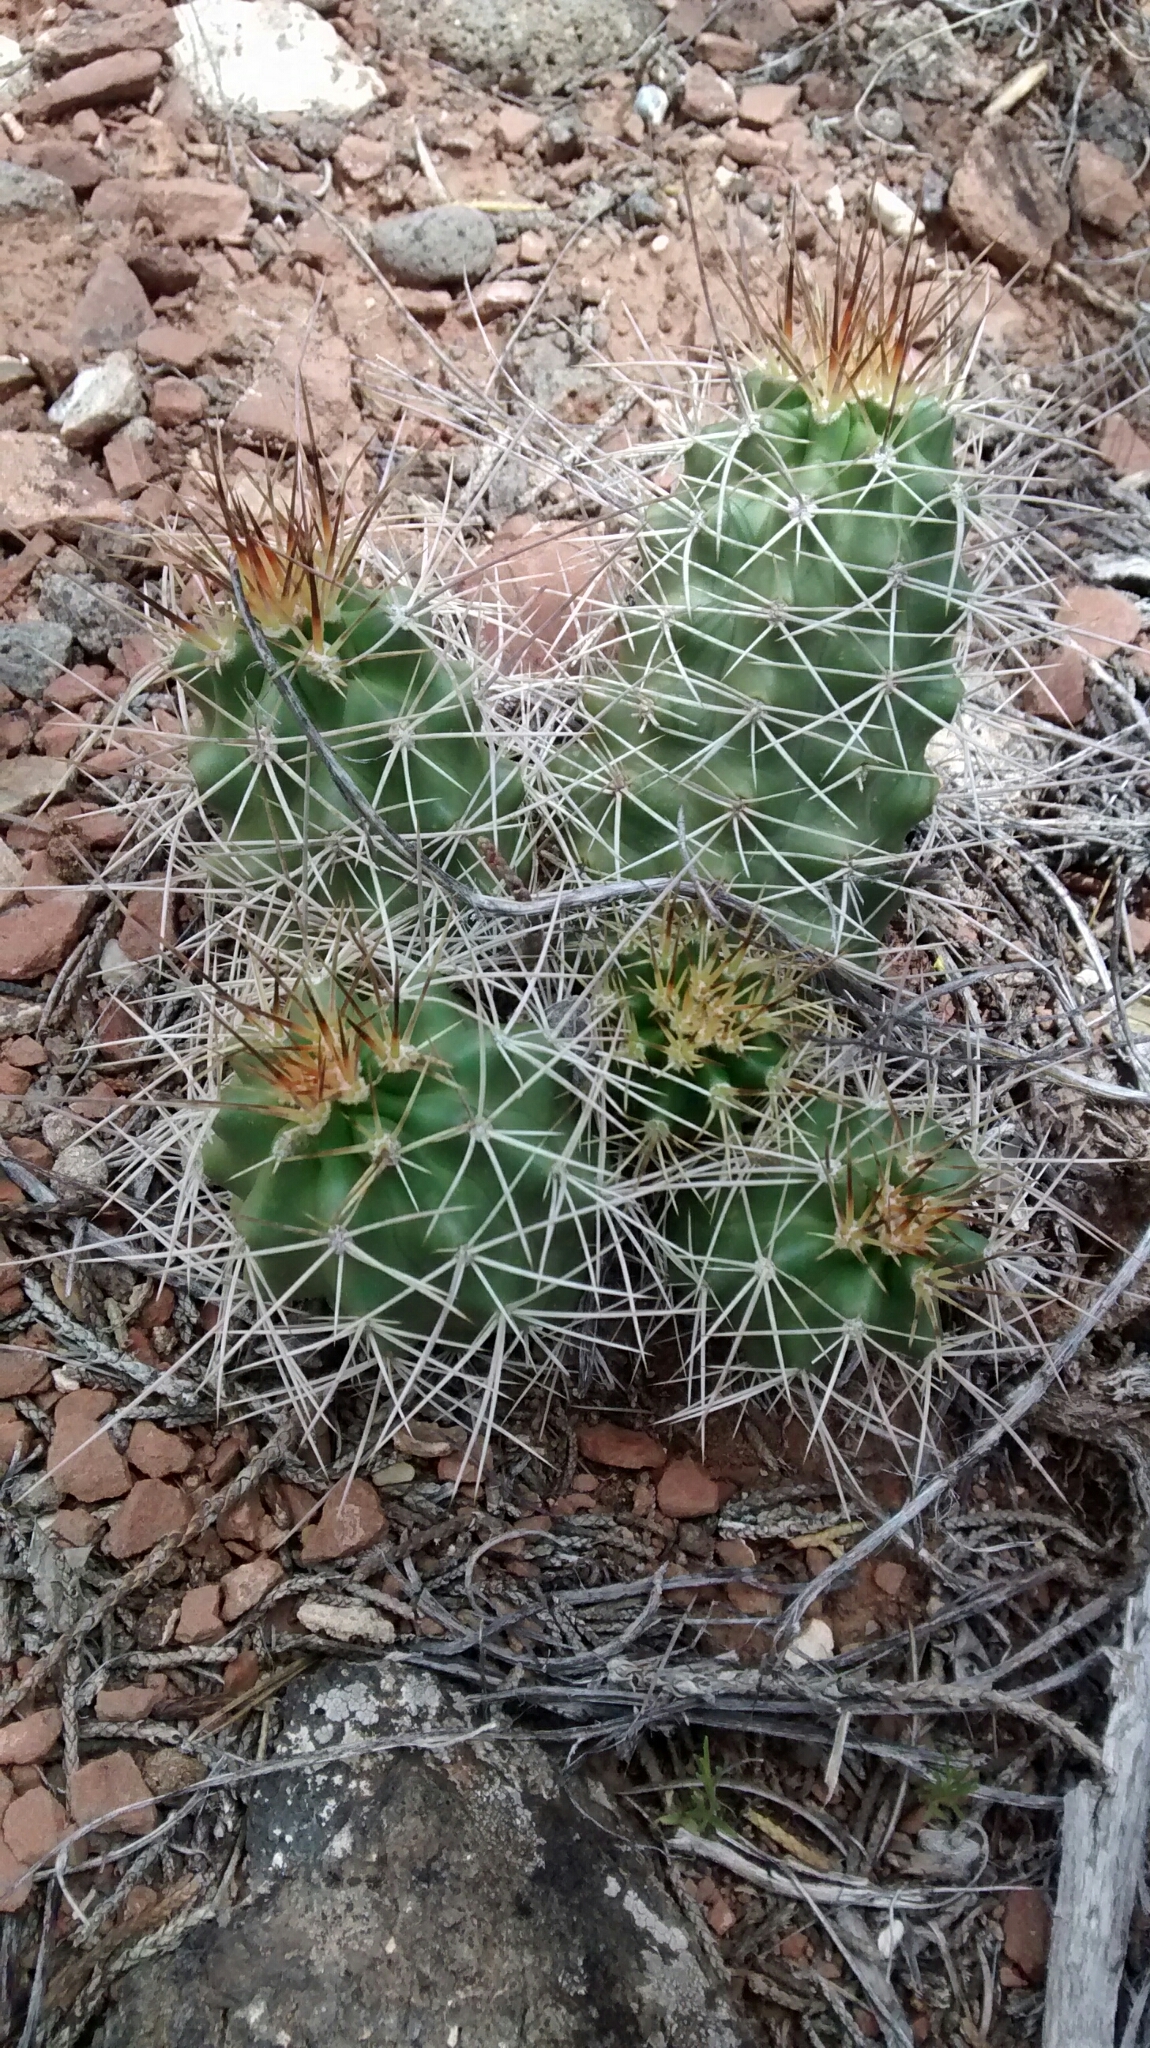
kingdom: Plantae
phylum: Tracheophyta
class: Magnoliopsida
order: Caryophyllales
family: Cactaceae
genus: Echinocereus
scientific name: Echinocereus triglochidiatus
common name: Claretcup hedgehog
